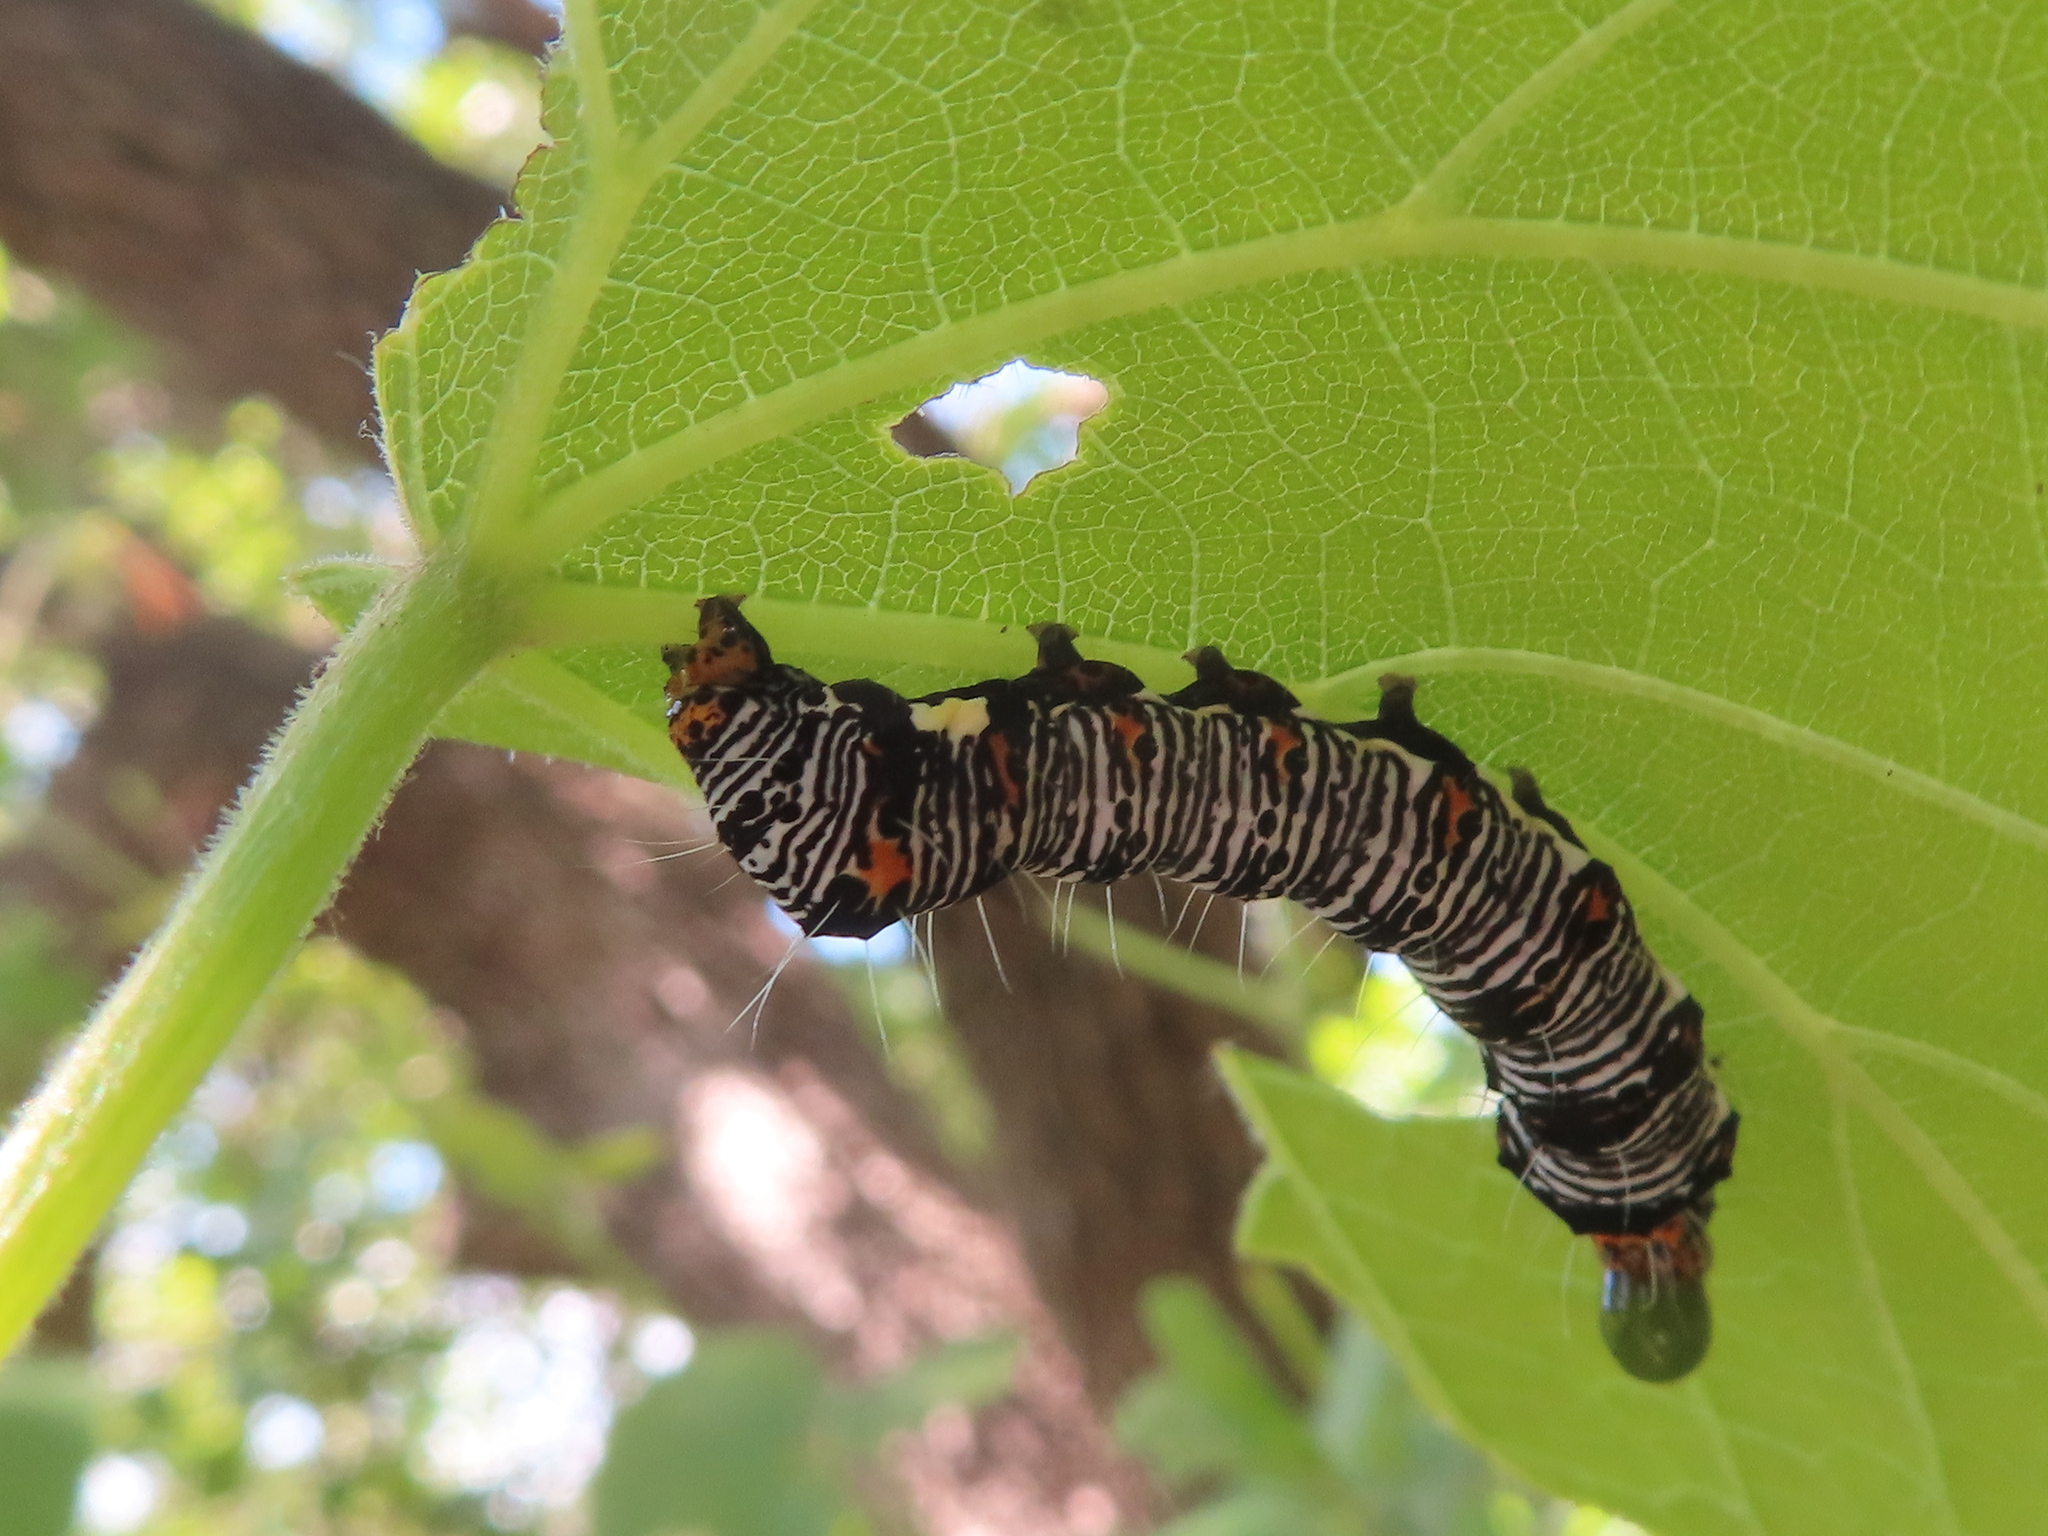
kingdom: Animalia
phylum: Arthropoda
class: Insecta
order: Lepidoptera
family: Noctuidae
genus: Alypia
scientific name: Alypia octomaculata
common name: Eight-spotted forester
